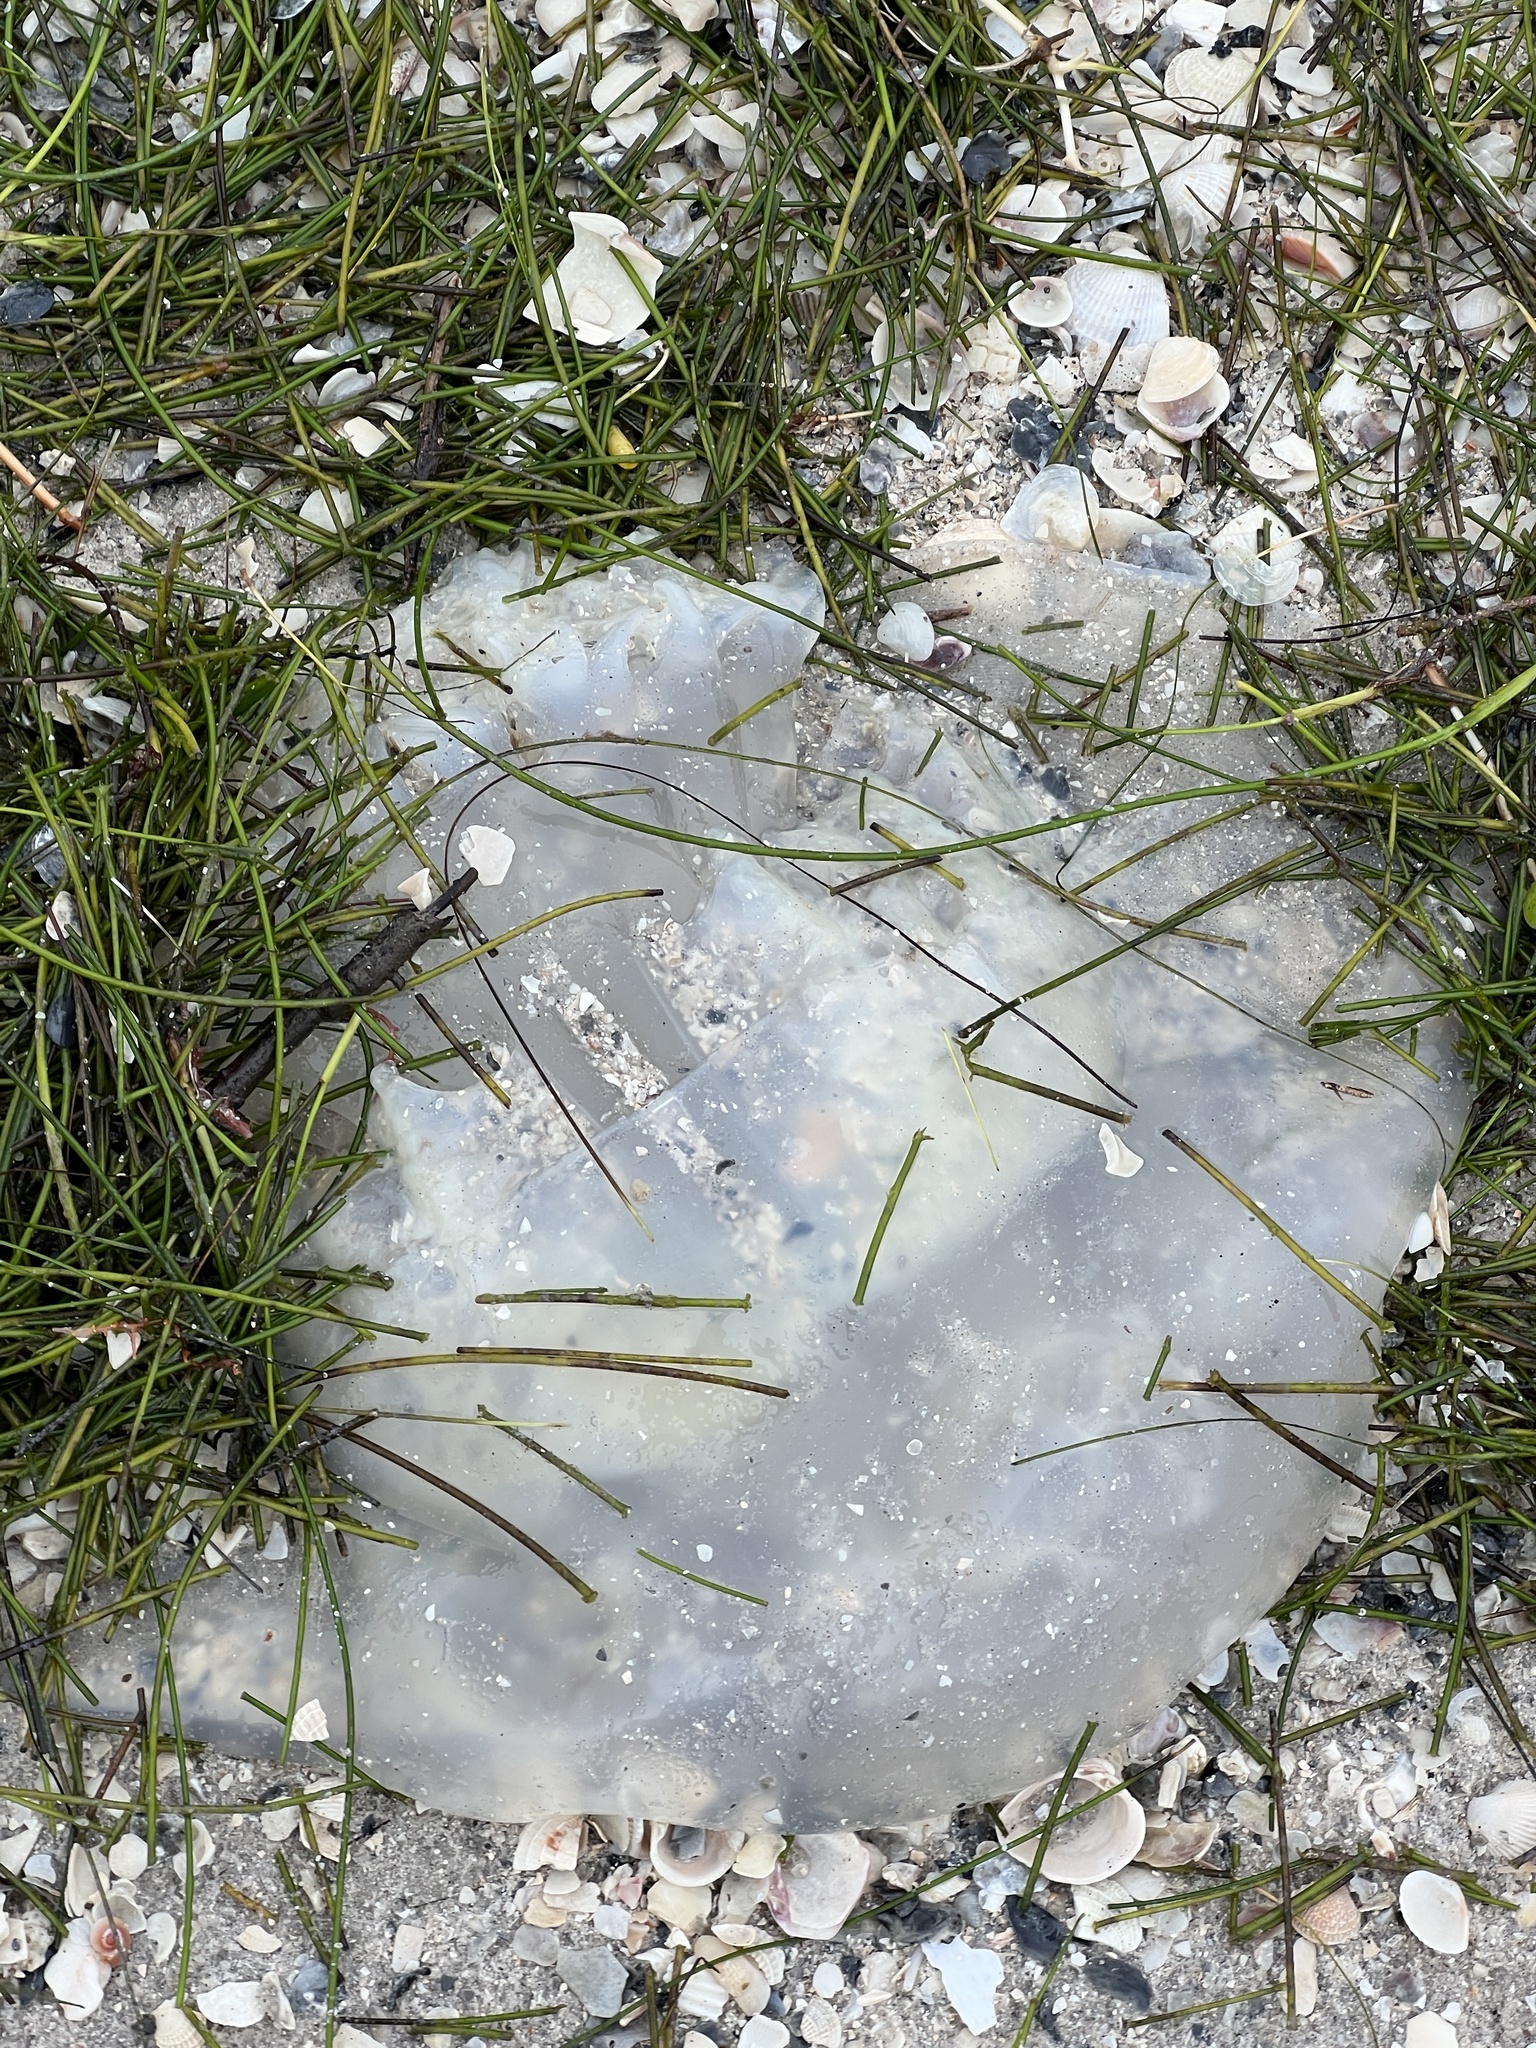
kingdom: Animalia
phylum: Cnidaria
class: Scyphozoa
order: Rhizostomeae
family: Stomolophidae
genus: Stomolophus
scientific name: Stomolophus meleagris
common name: Cabbagehead
